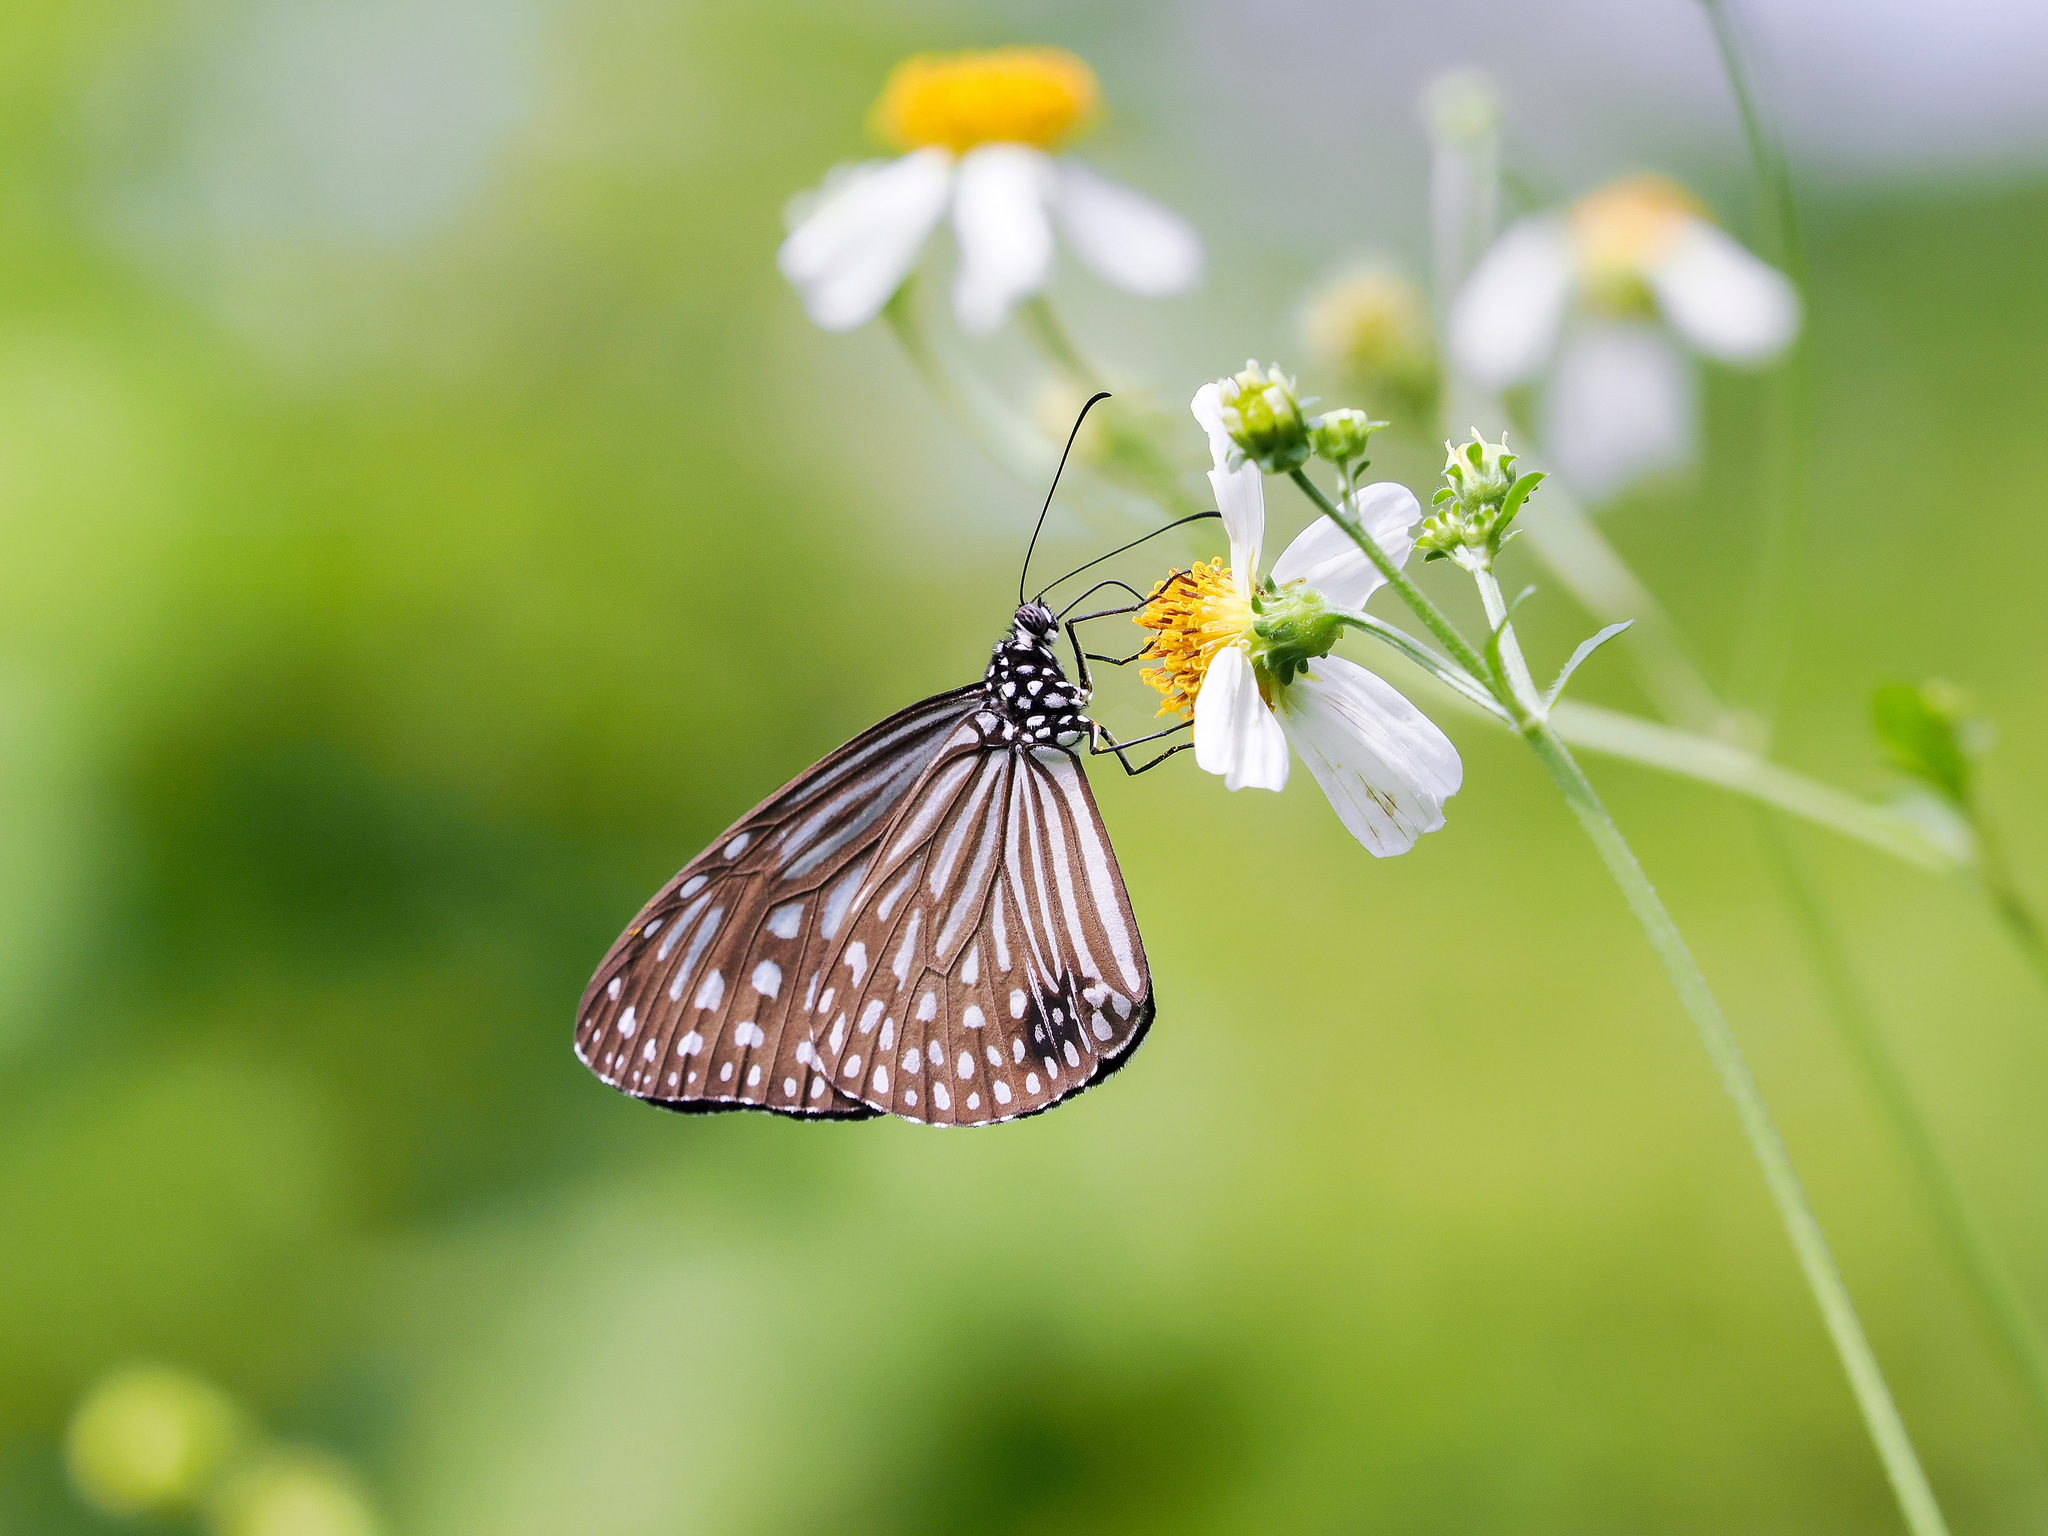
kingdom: Animalia
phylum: Arthropoda
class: Insecta
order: Lepidoptera
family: Nymphalidae
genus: Parantica
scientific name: Parantica agleoides
